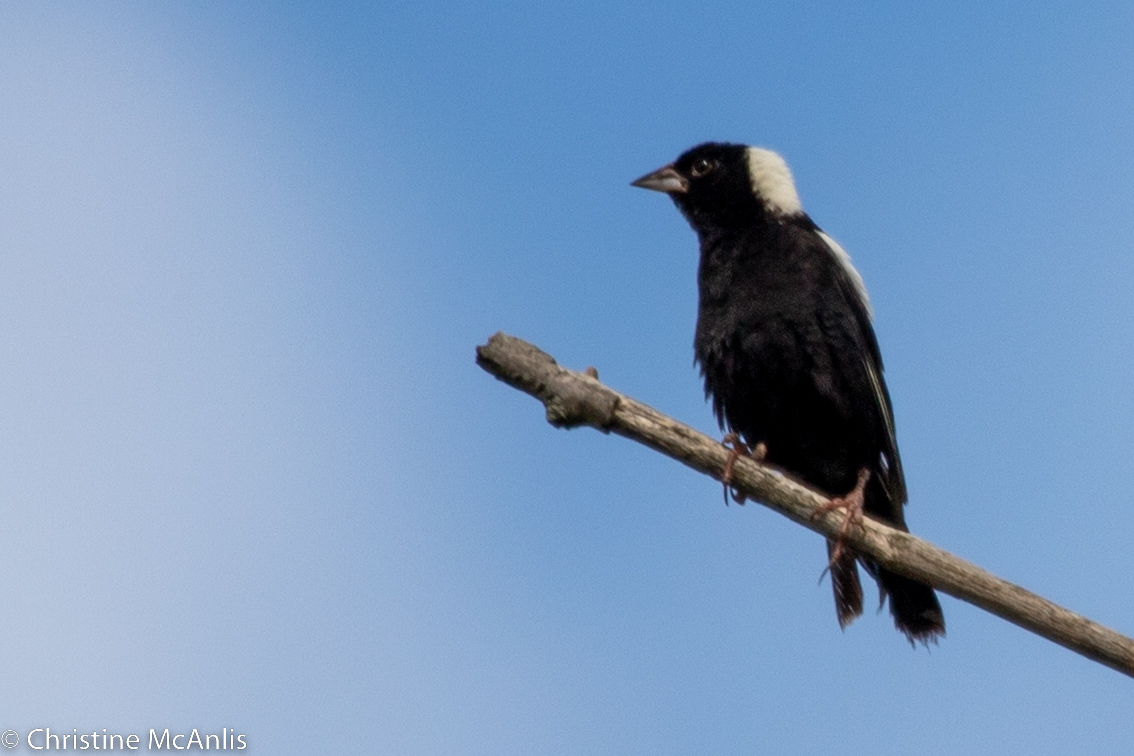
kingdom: Animalia
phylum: Chordata
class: Aves
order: Passeriformes
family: Icteridae
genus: Dolichonyx
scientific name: Dolichonyx oryzivorus
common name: Bobolink
